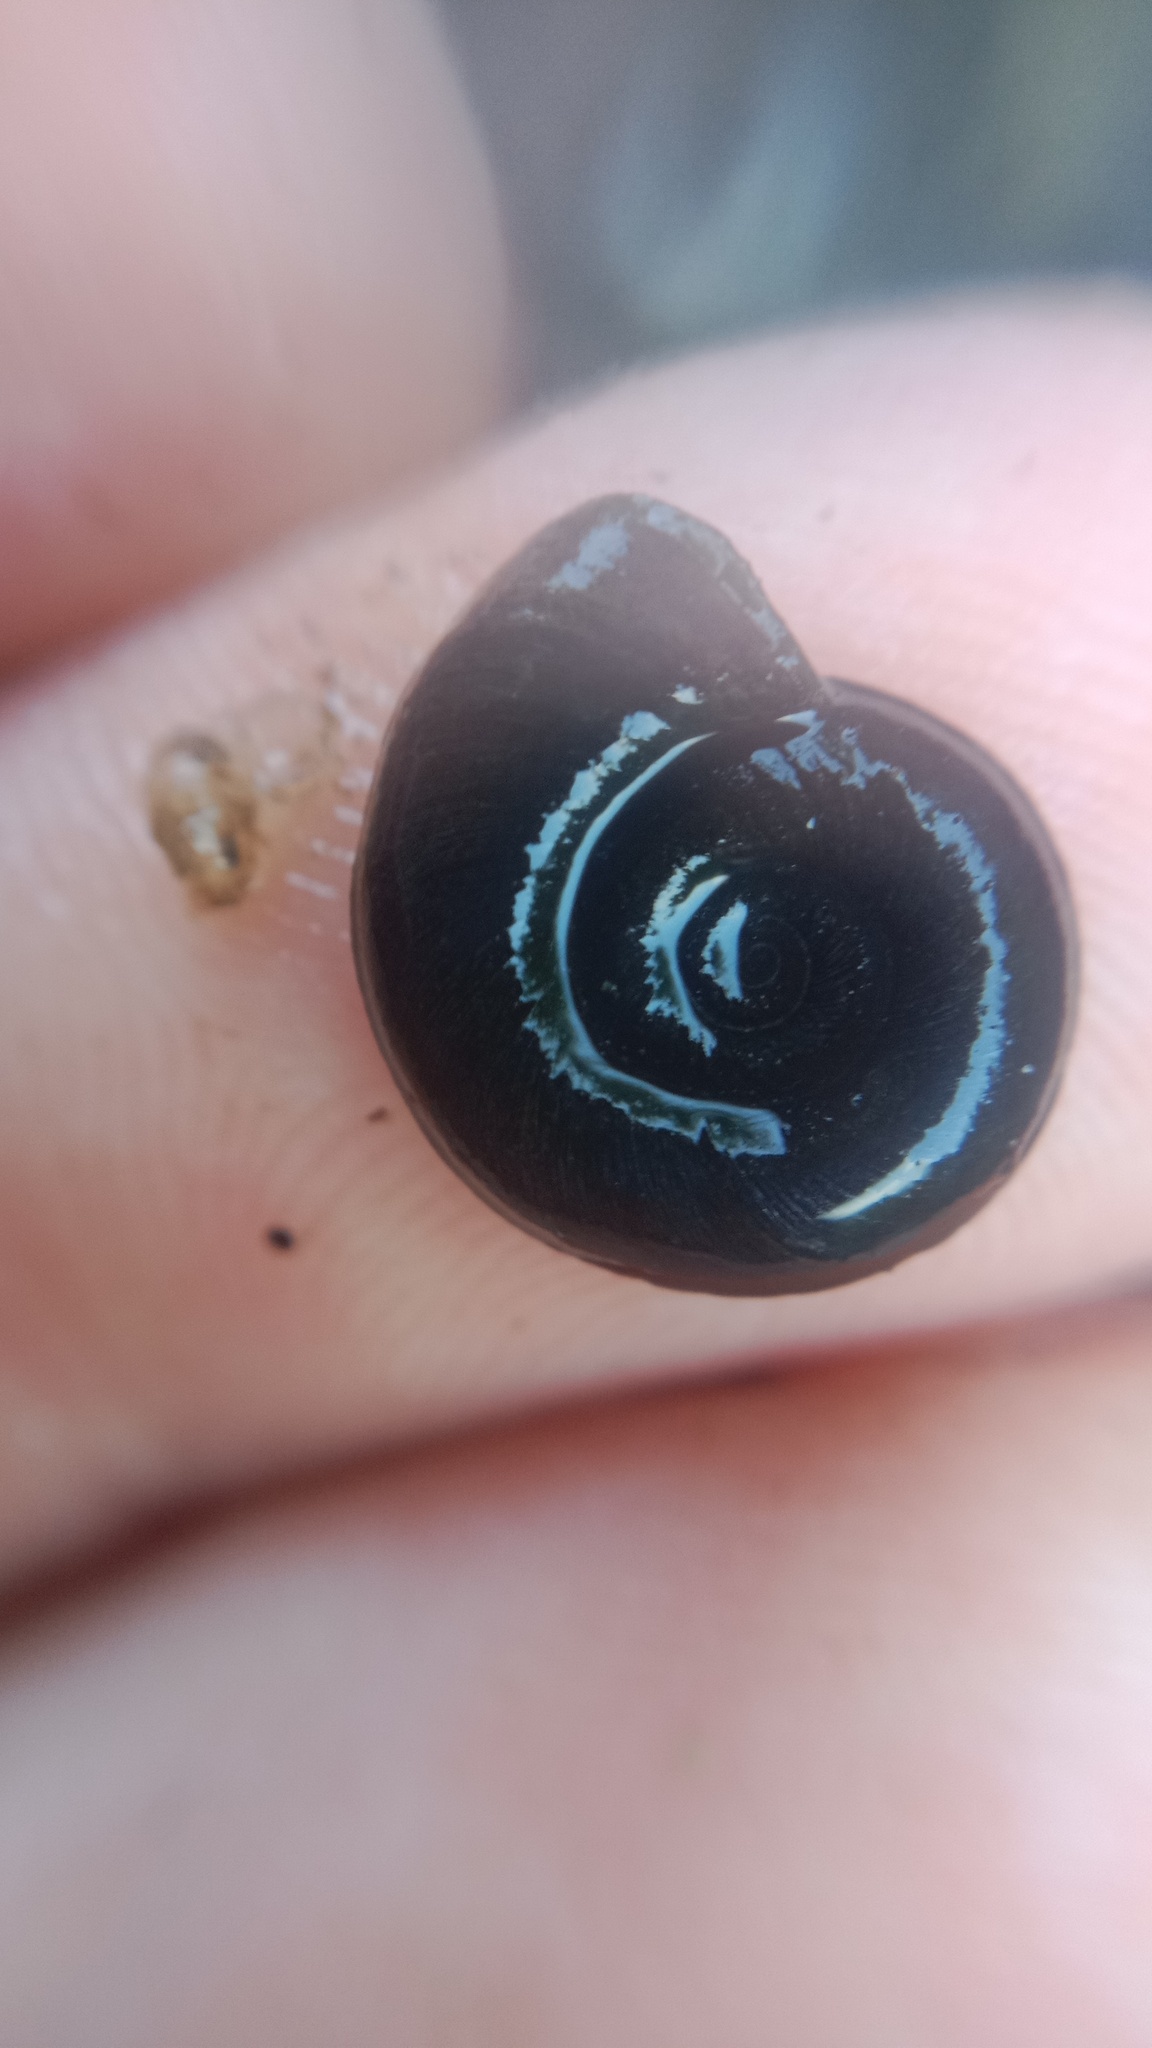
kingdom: Animalia
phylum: Mollusca
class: Gastropoda
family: Planorbidae
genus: Planorbis
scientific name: Planorbis planorbis
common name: Margined ramshorn
